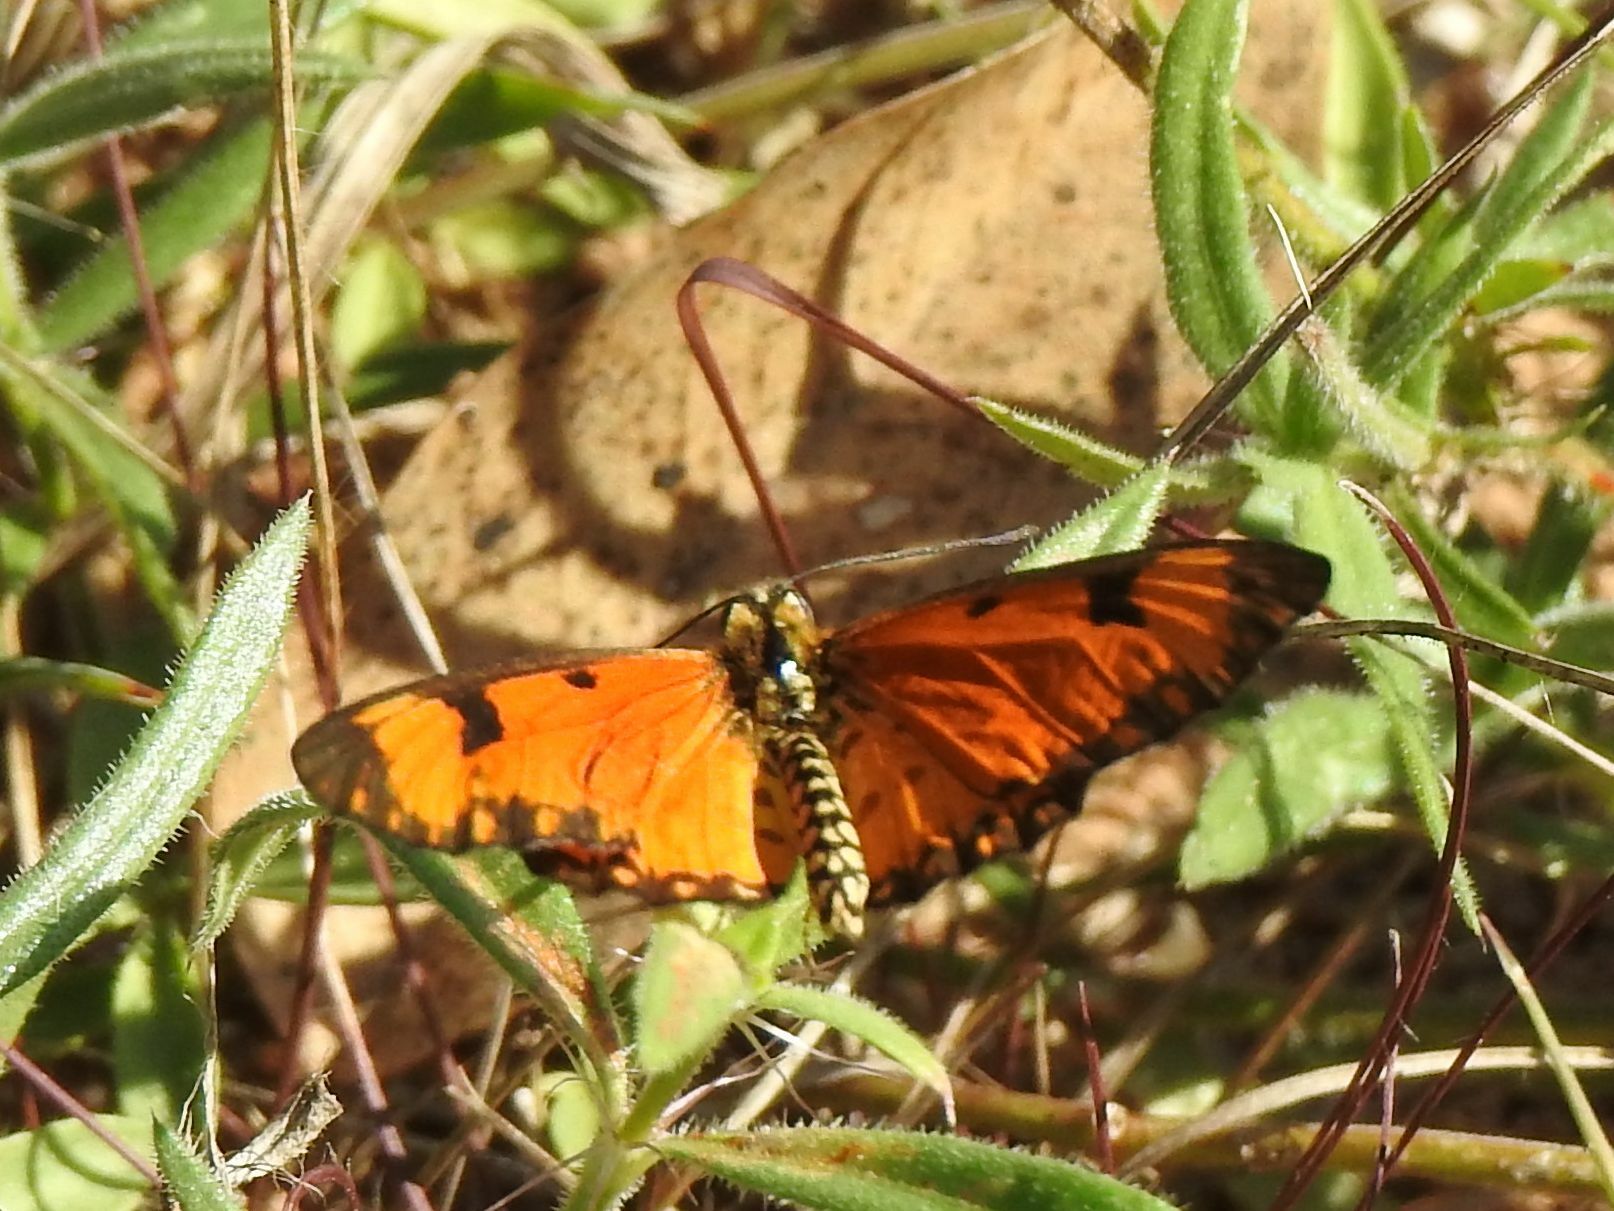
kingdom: Animalia
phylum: Arthropoda
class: Insecta
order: Lepidoptera
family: Nymphalidae
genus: Acraea
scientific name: Acraea Telchinia serena
